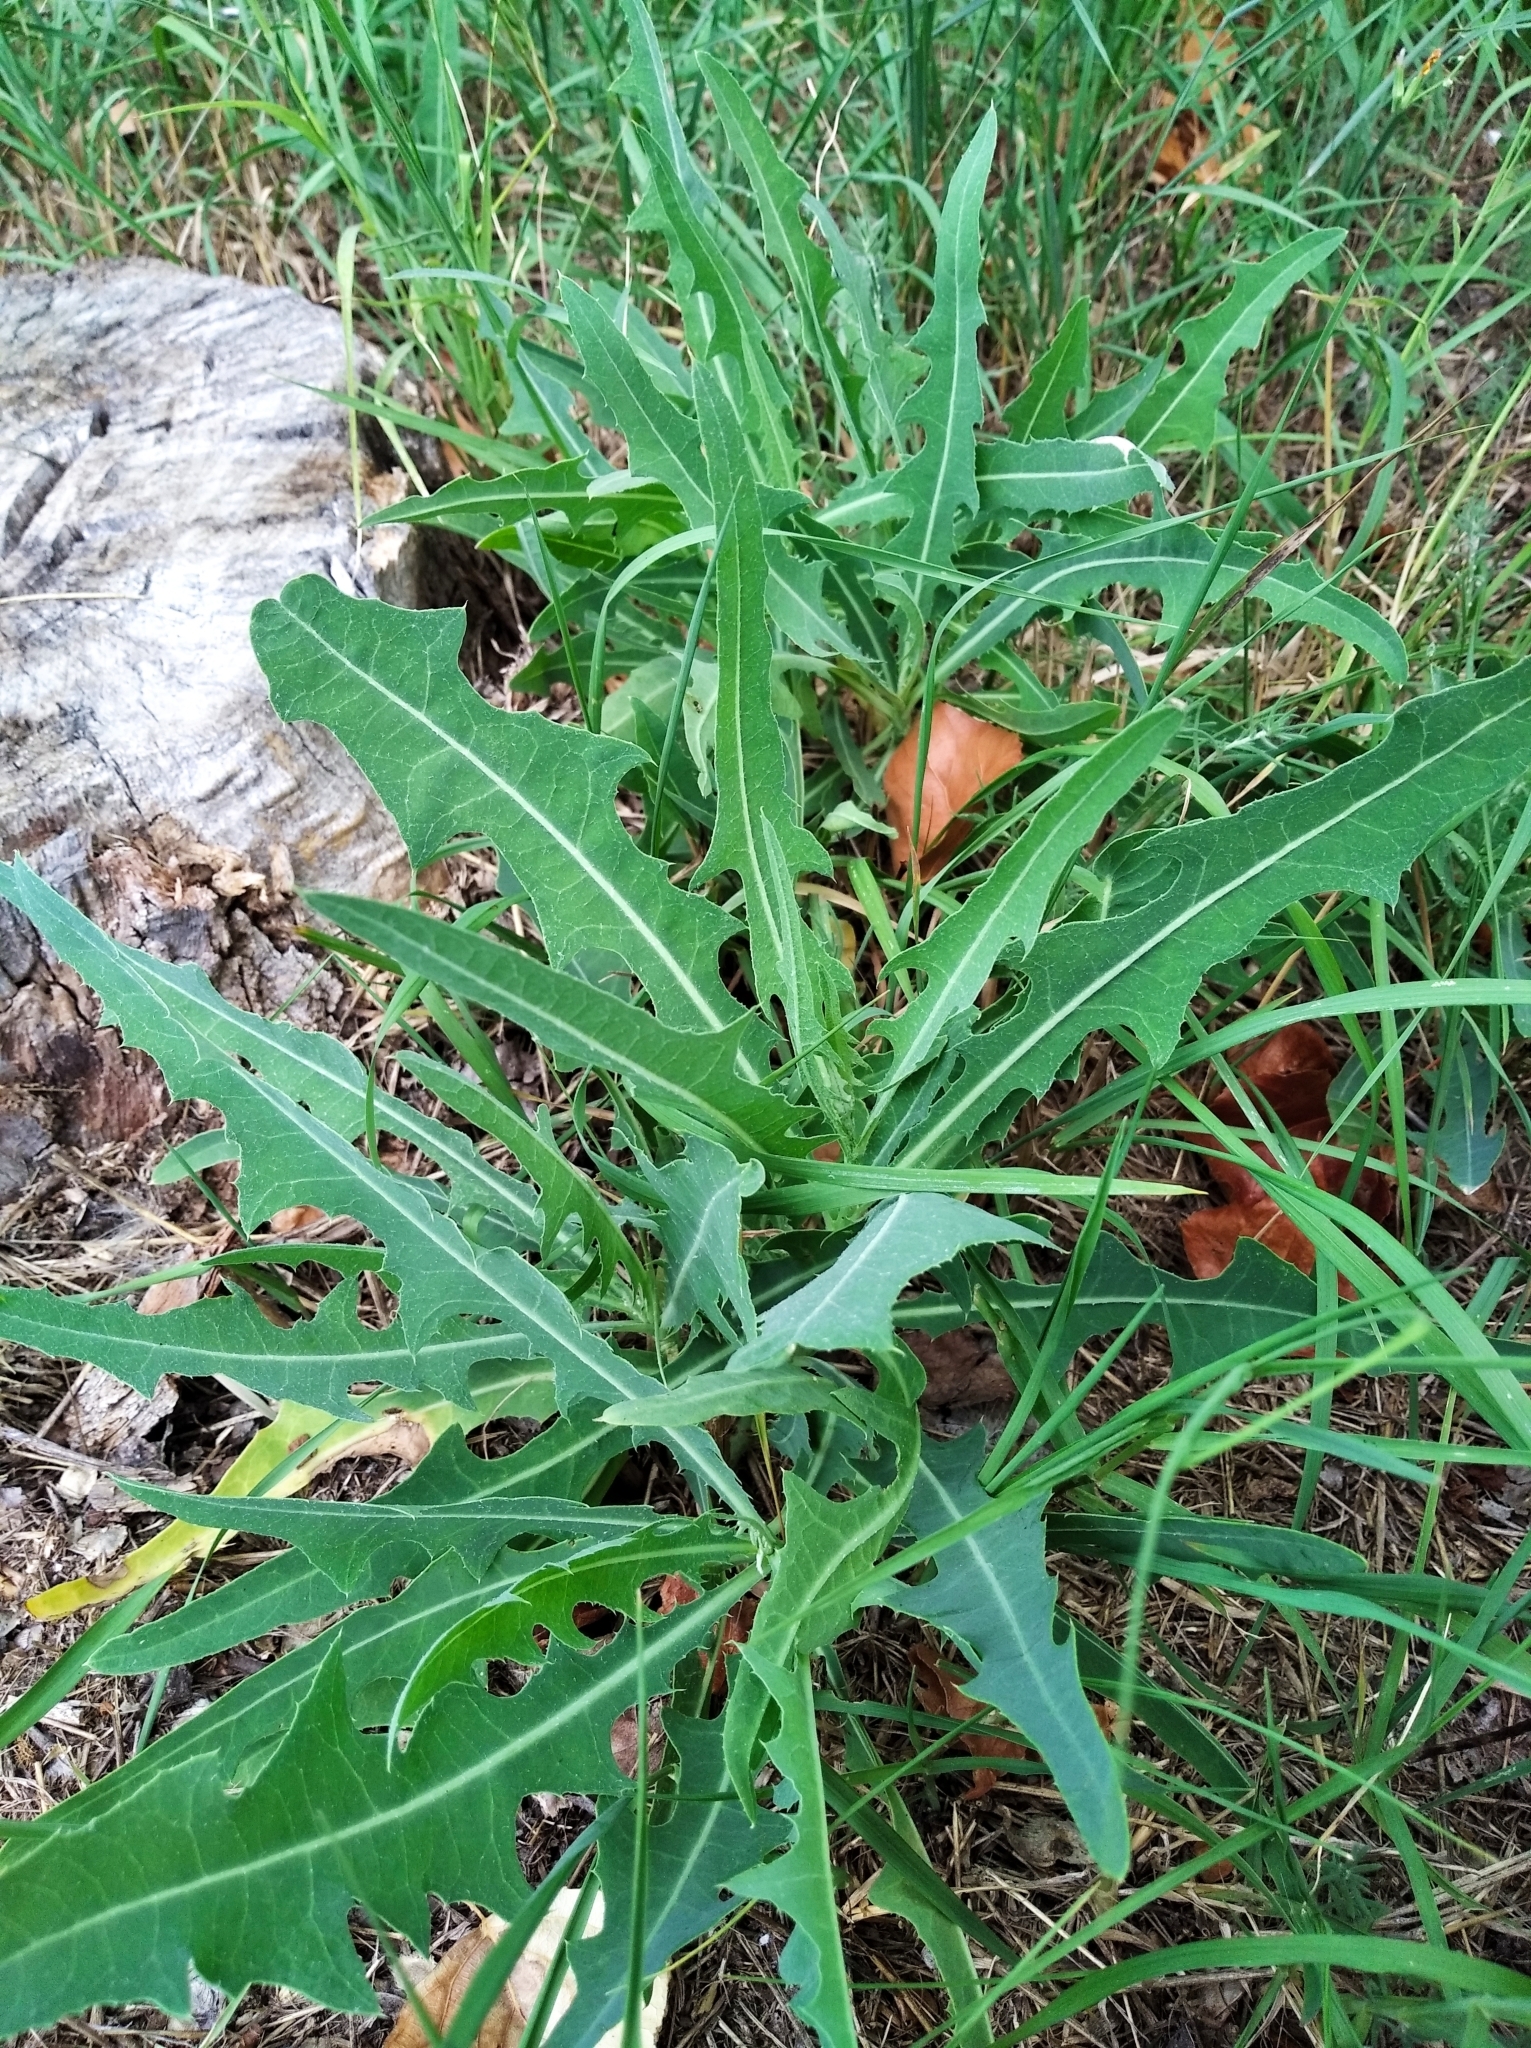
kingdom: Plantae
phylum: Tracheophyta
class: Magnoliopsida
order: Asterales
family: Asteraceae
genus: Lactuca
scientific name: Lactuca tatarica
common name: Blue lettuce
